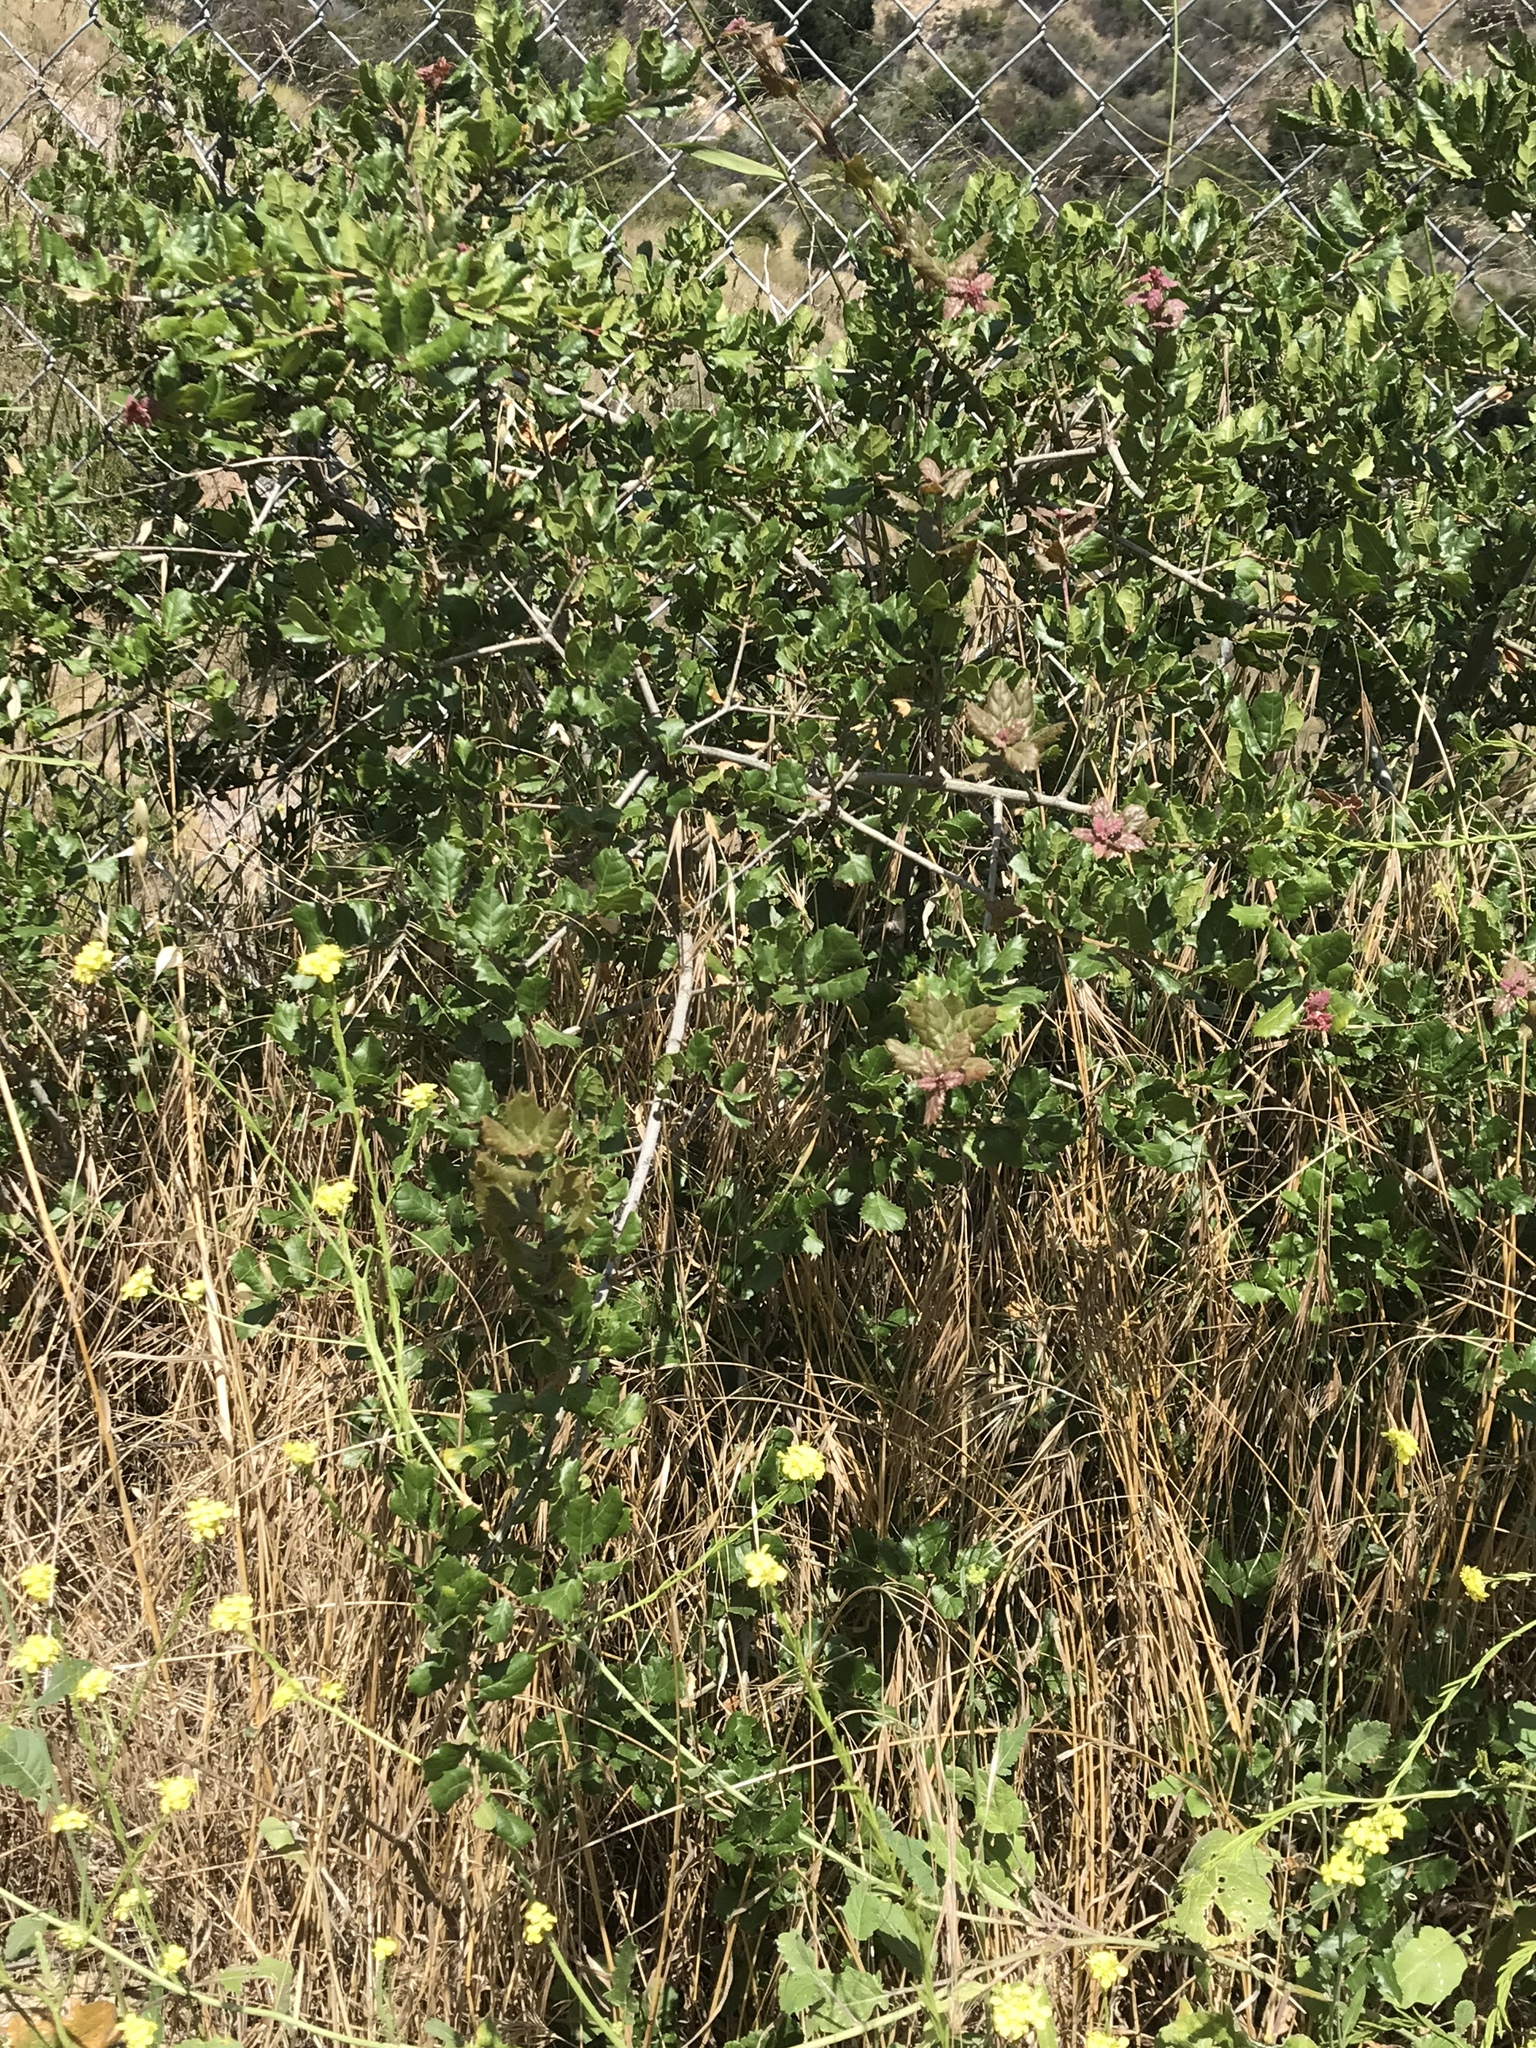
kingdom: Plantae
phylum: Tracheophyta
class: Magnoliopsida
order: Fagales
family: Fagaceae
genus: Quercus
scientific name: Quercus agrifolia
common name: California live oak
